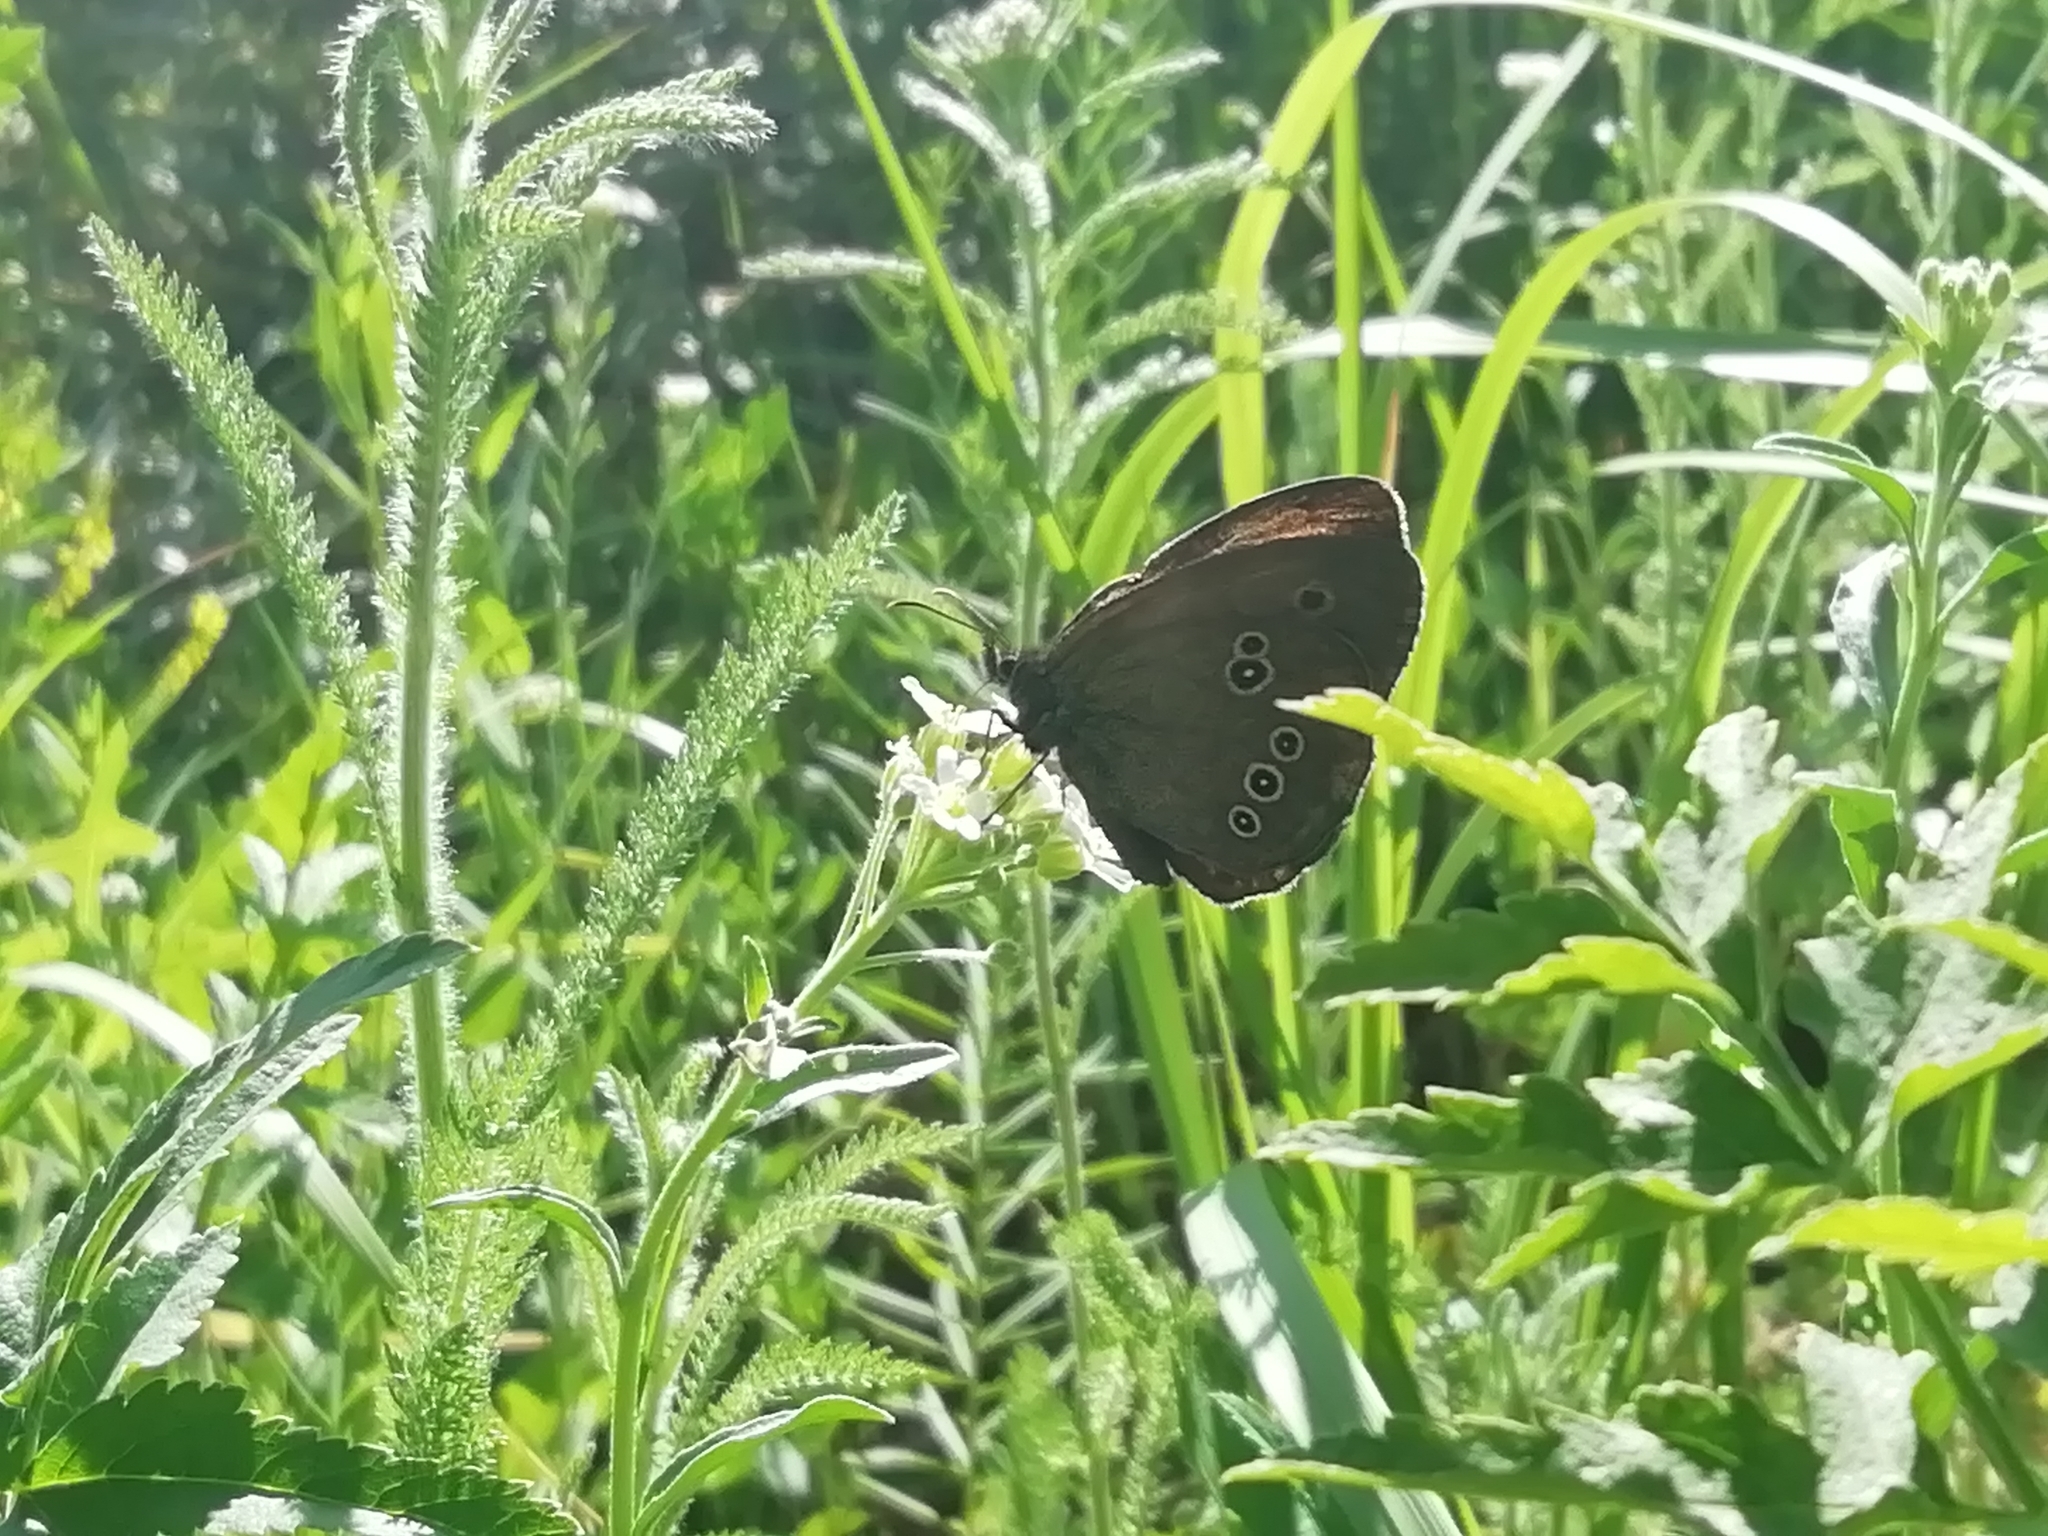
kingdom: Animalia
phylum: Arthropoda
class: Insecta
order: Lepidoptera
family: Nymphalidae
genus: Aphantopus
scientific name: Aphantopus hyperantus
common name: Ringlet
